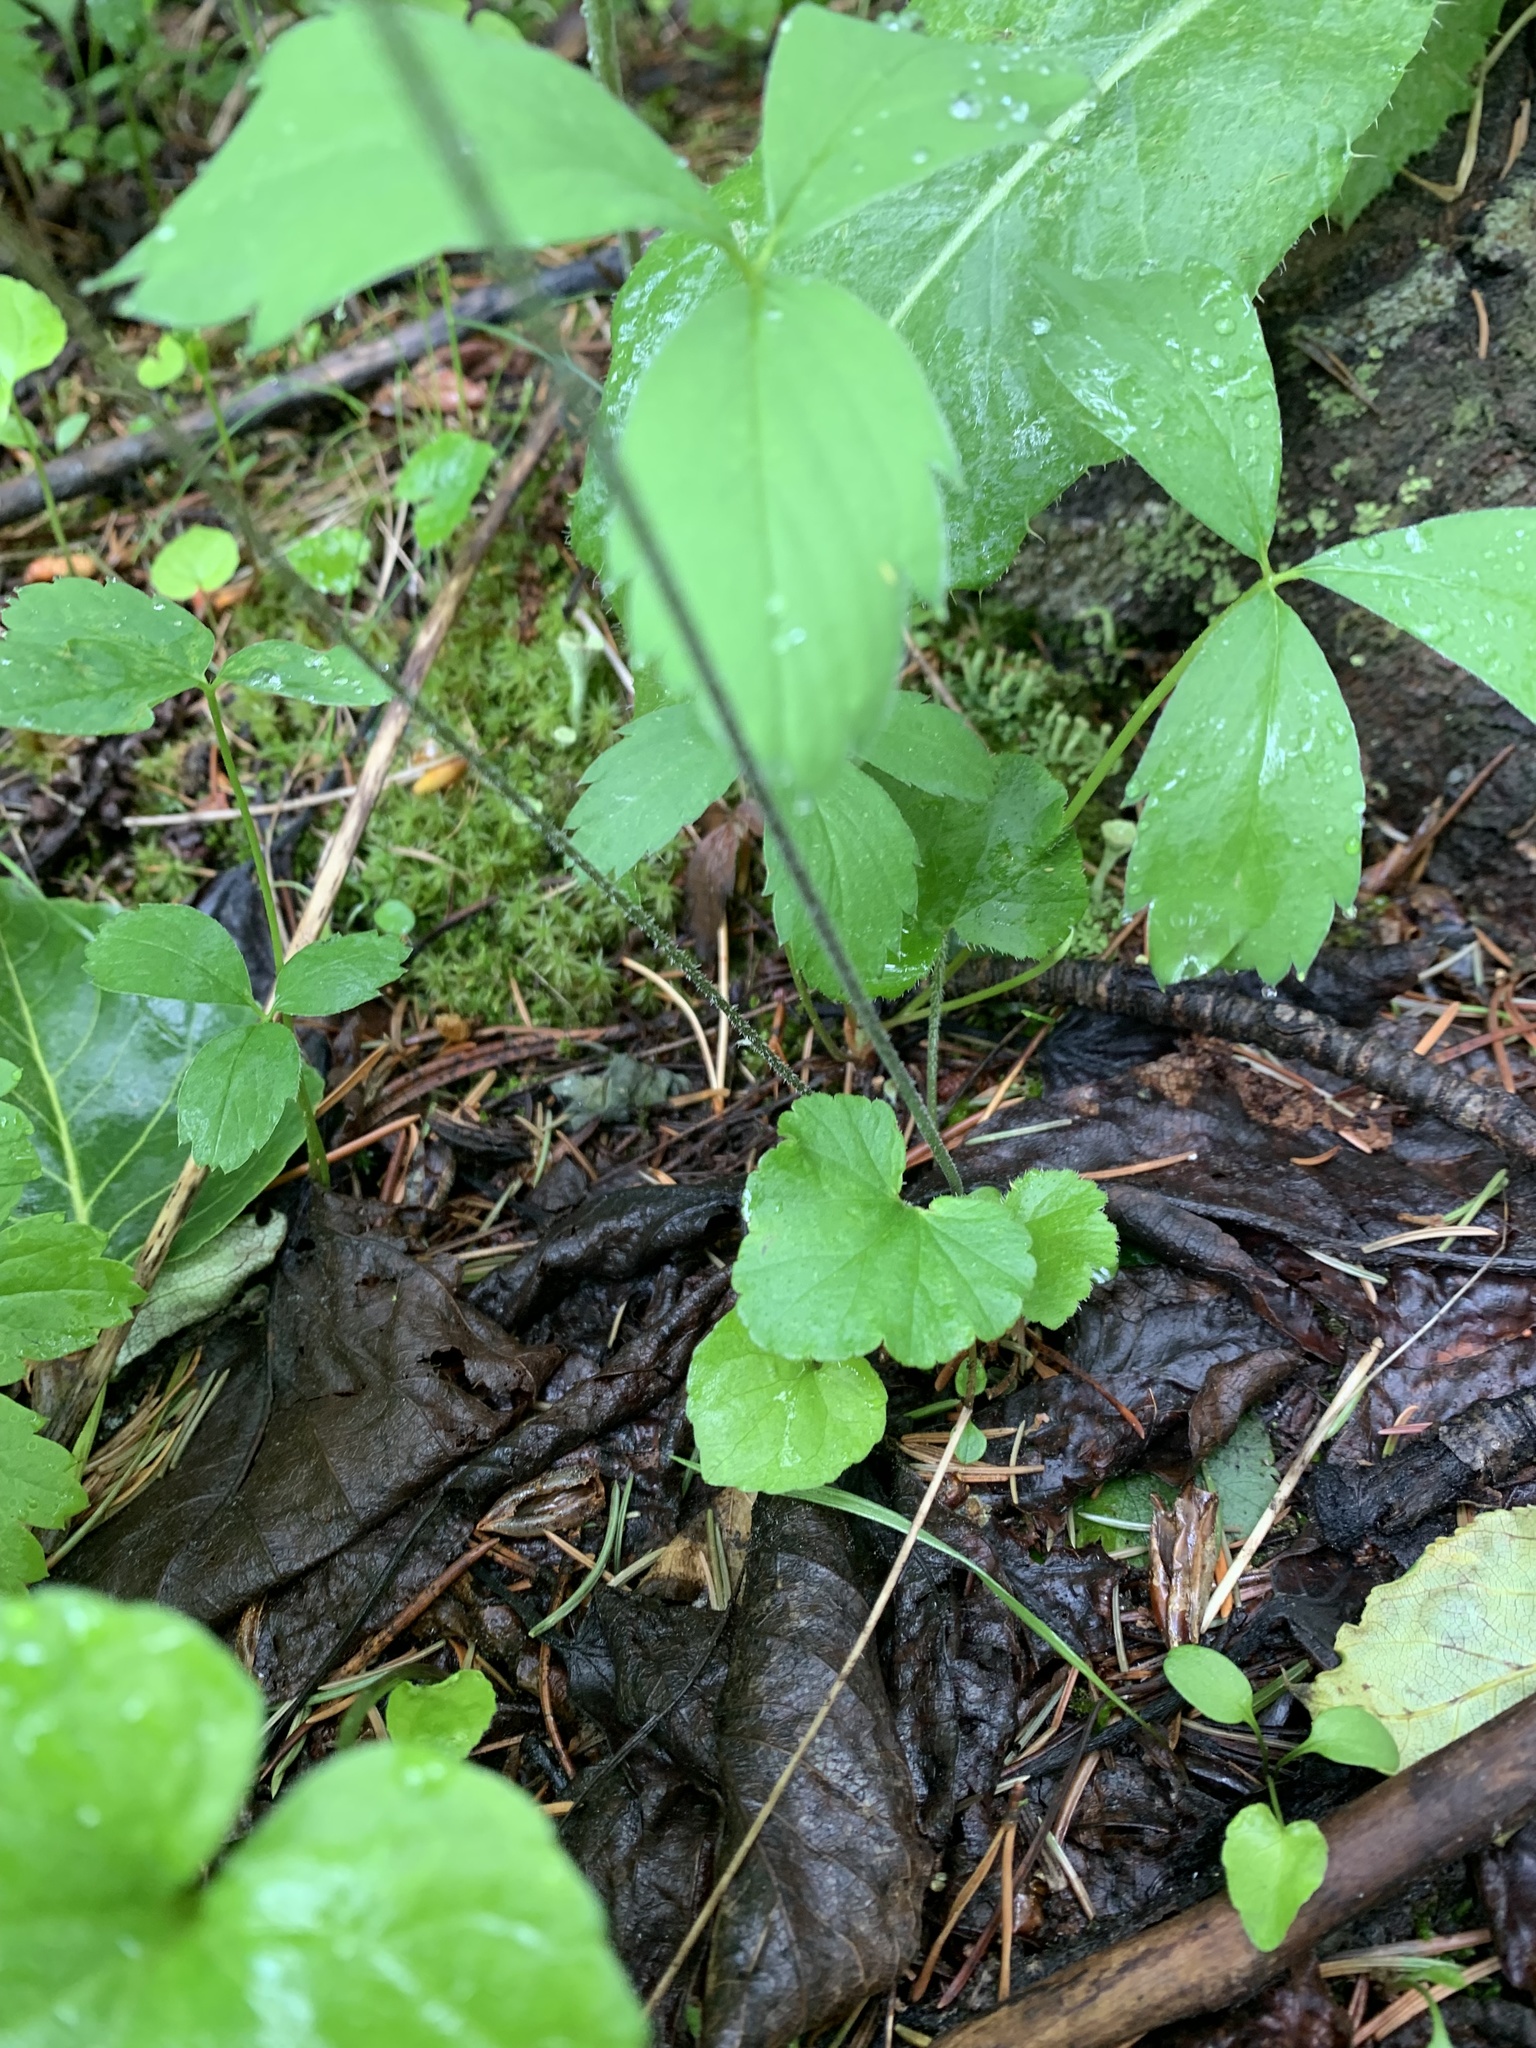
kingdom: Plantae
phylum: Tracheophyta
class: Magnoliopsida
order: Saxifragales
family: Saxifragaceae
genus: Ozomelis
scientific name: Ozomelis trifida
